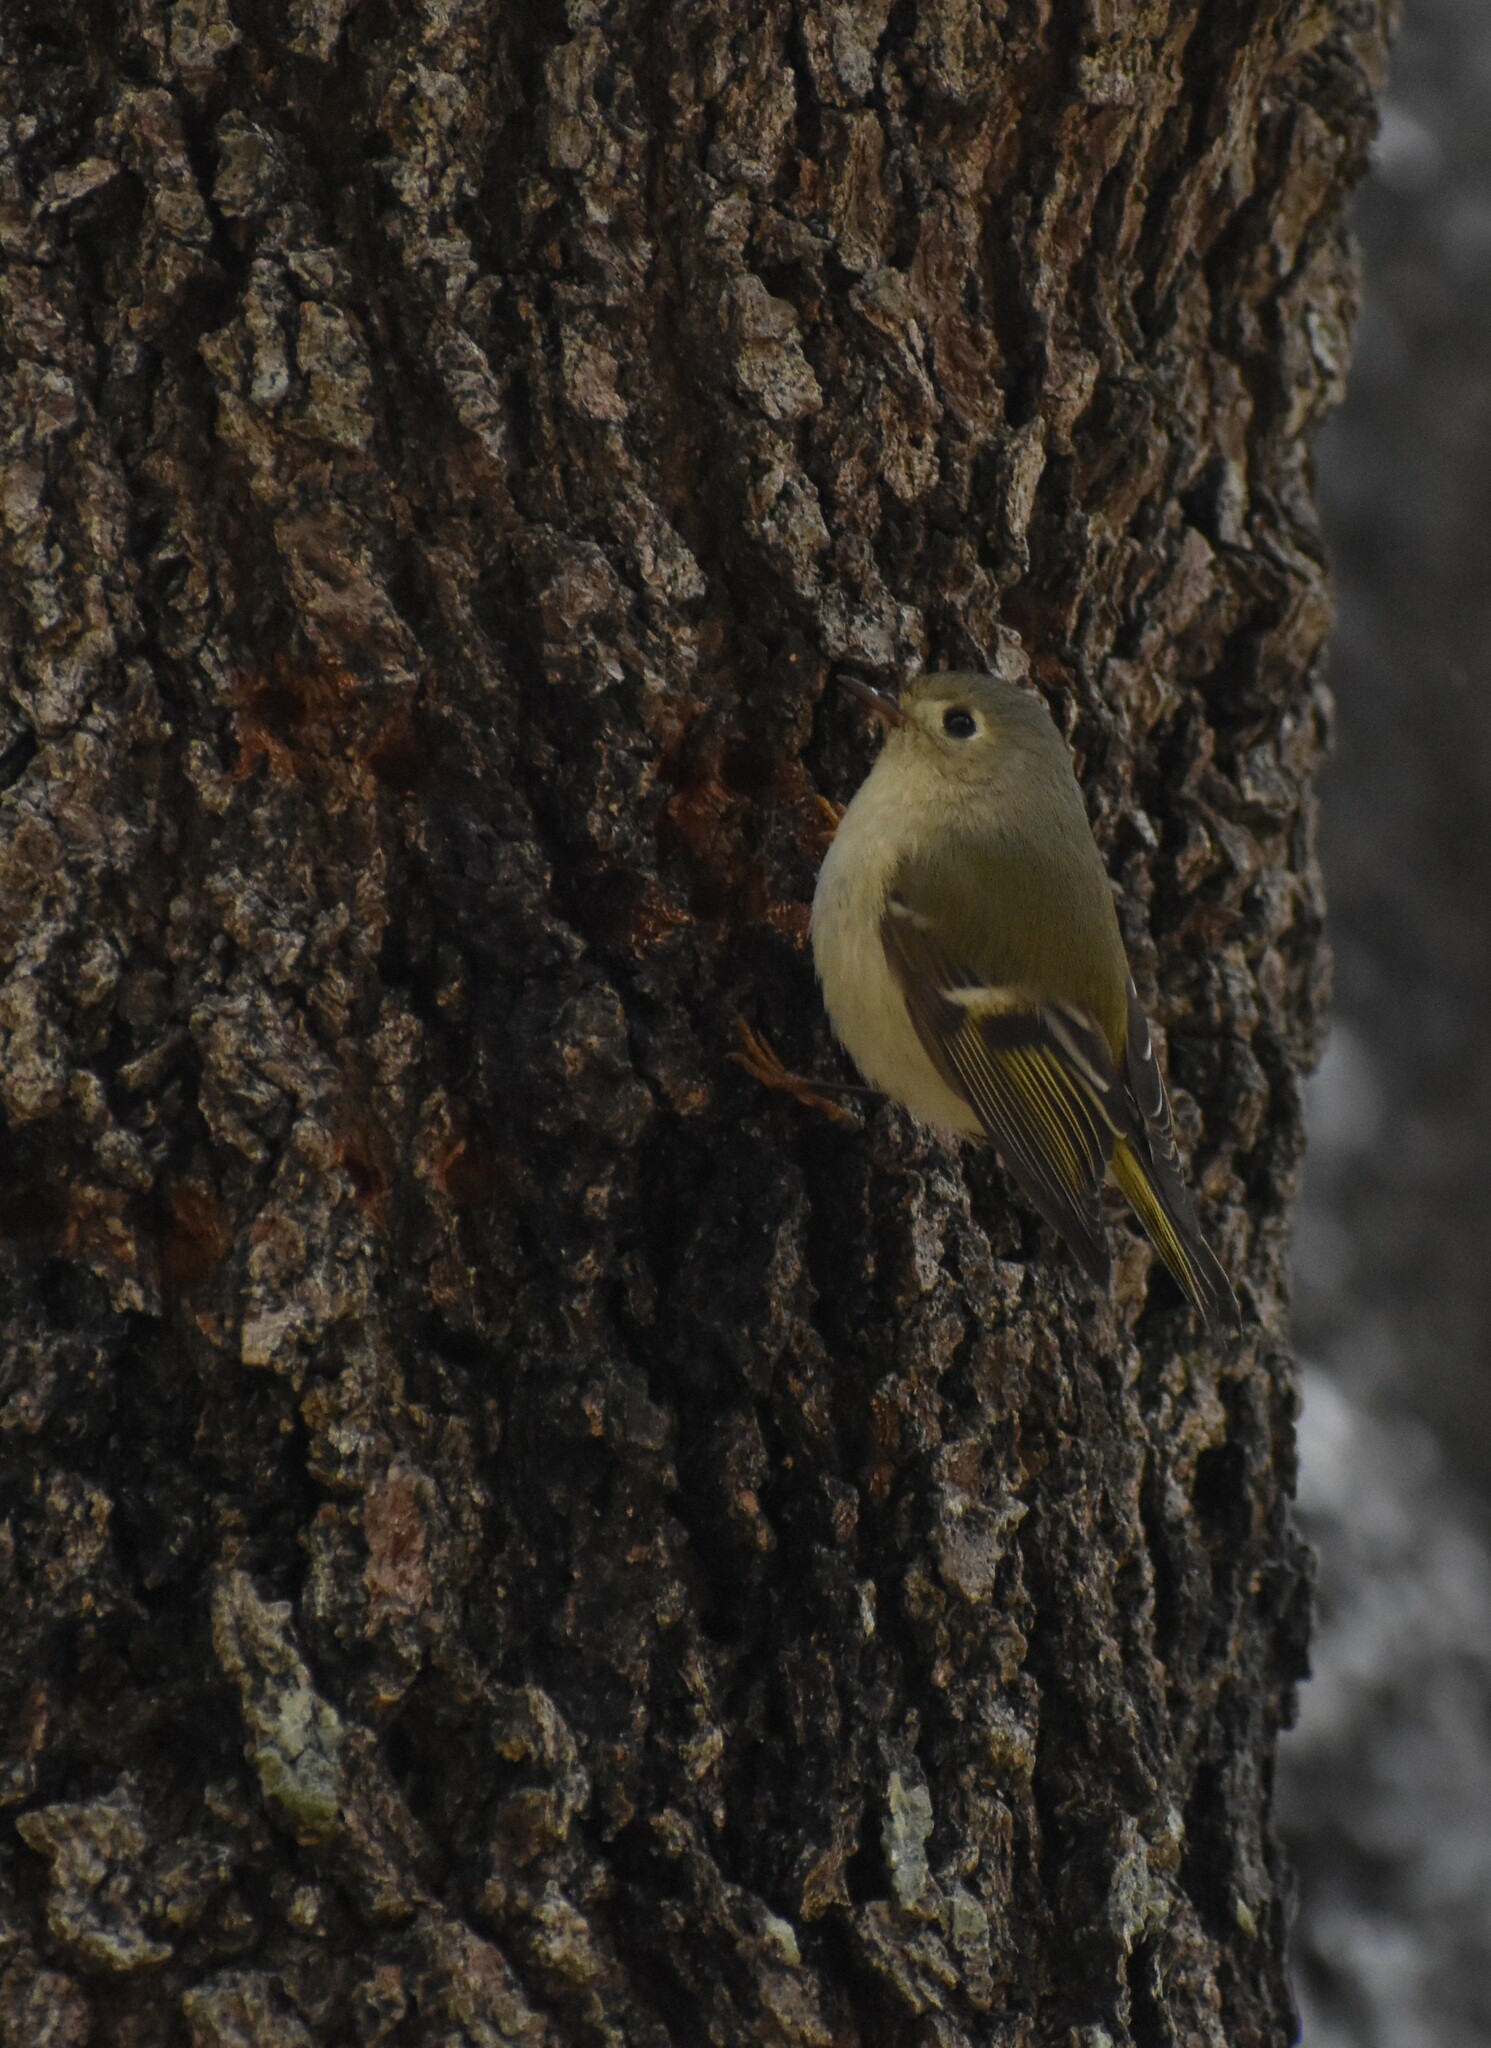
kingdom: Animalia
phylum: Chordata
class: Aves
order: Passeriformes
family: Regulidae
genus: Regulus
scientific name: Regulus calendula
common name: Ruby-crowned kinglet
